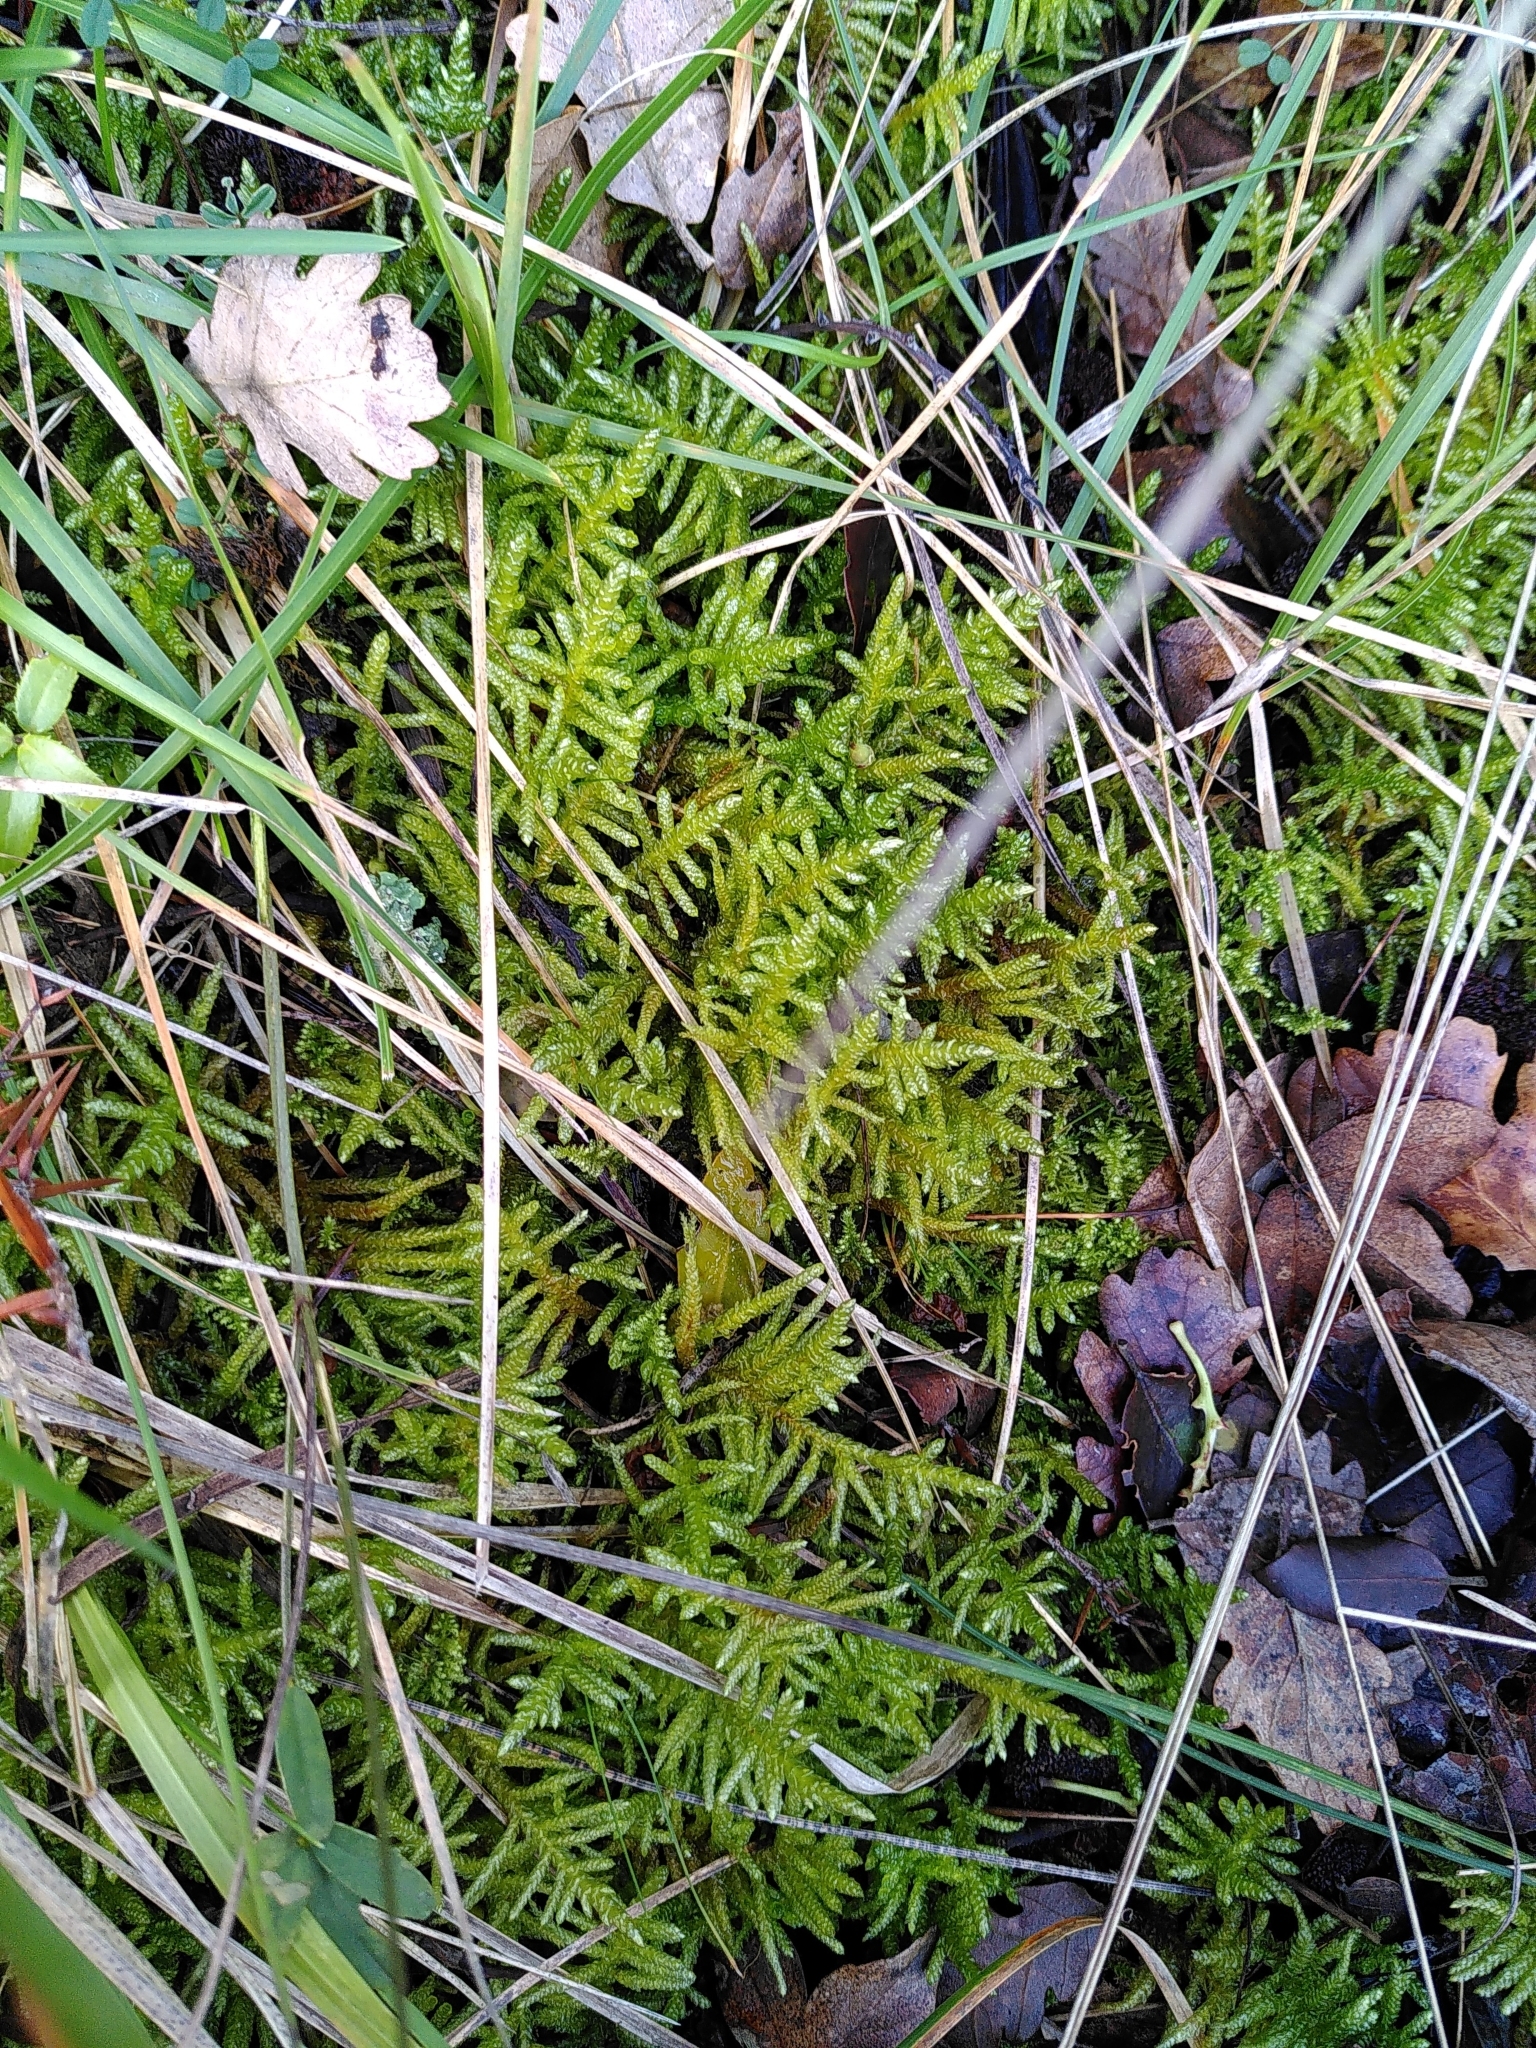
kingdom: Plantae
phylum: Bryophyta
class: Bryopsida
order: Hypnales
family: Brachytheciaceae
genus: Pseudoscleropodium
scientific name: Pseudoscleropodium purum
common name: Neat feather-moss
